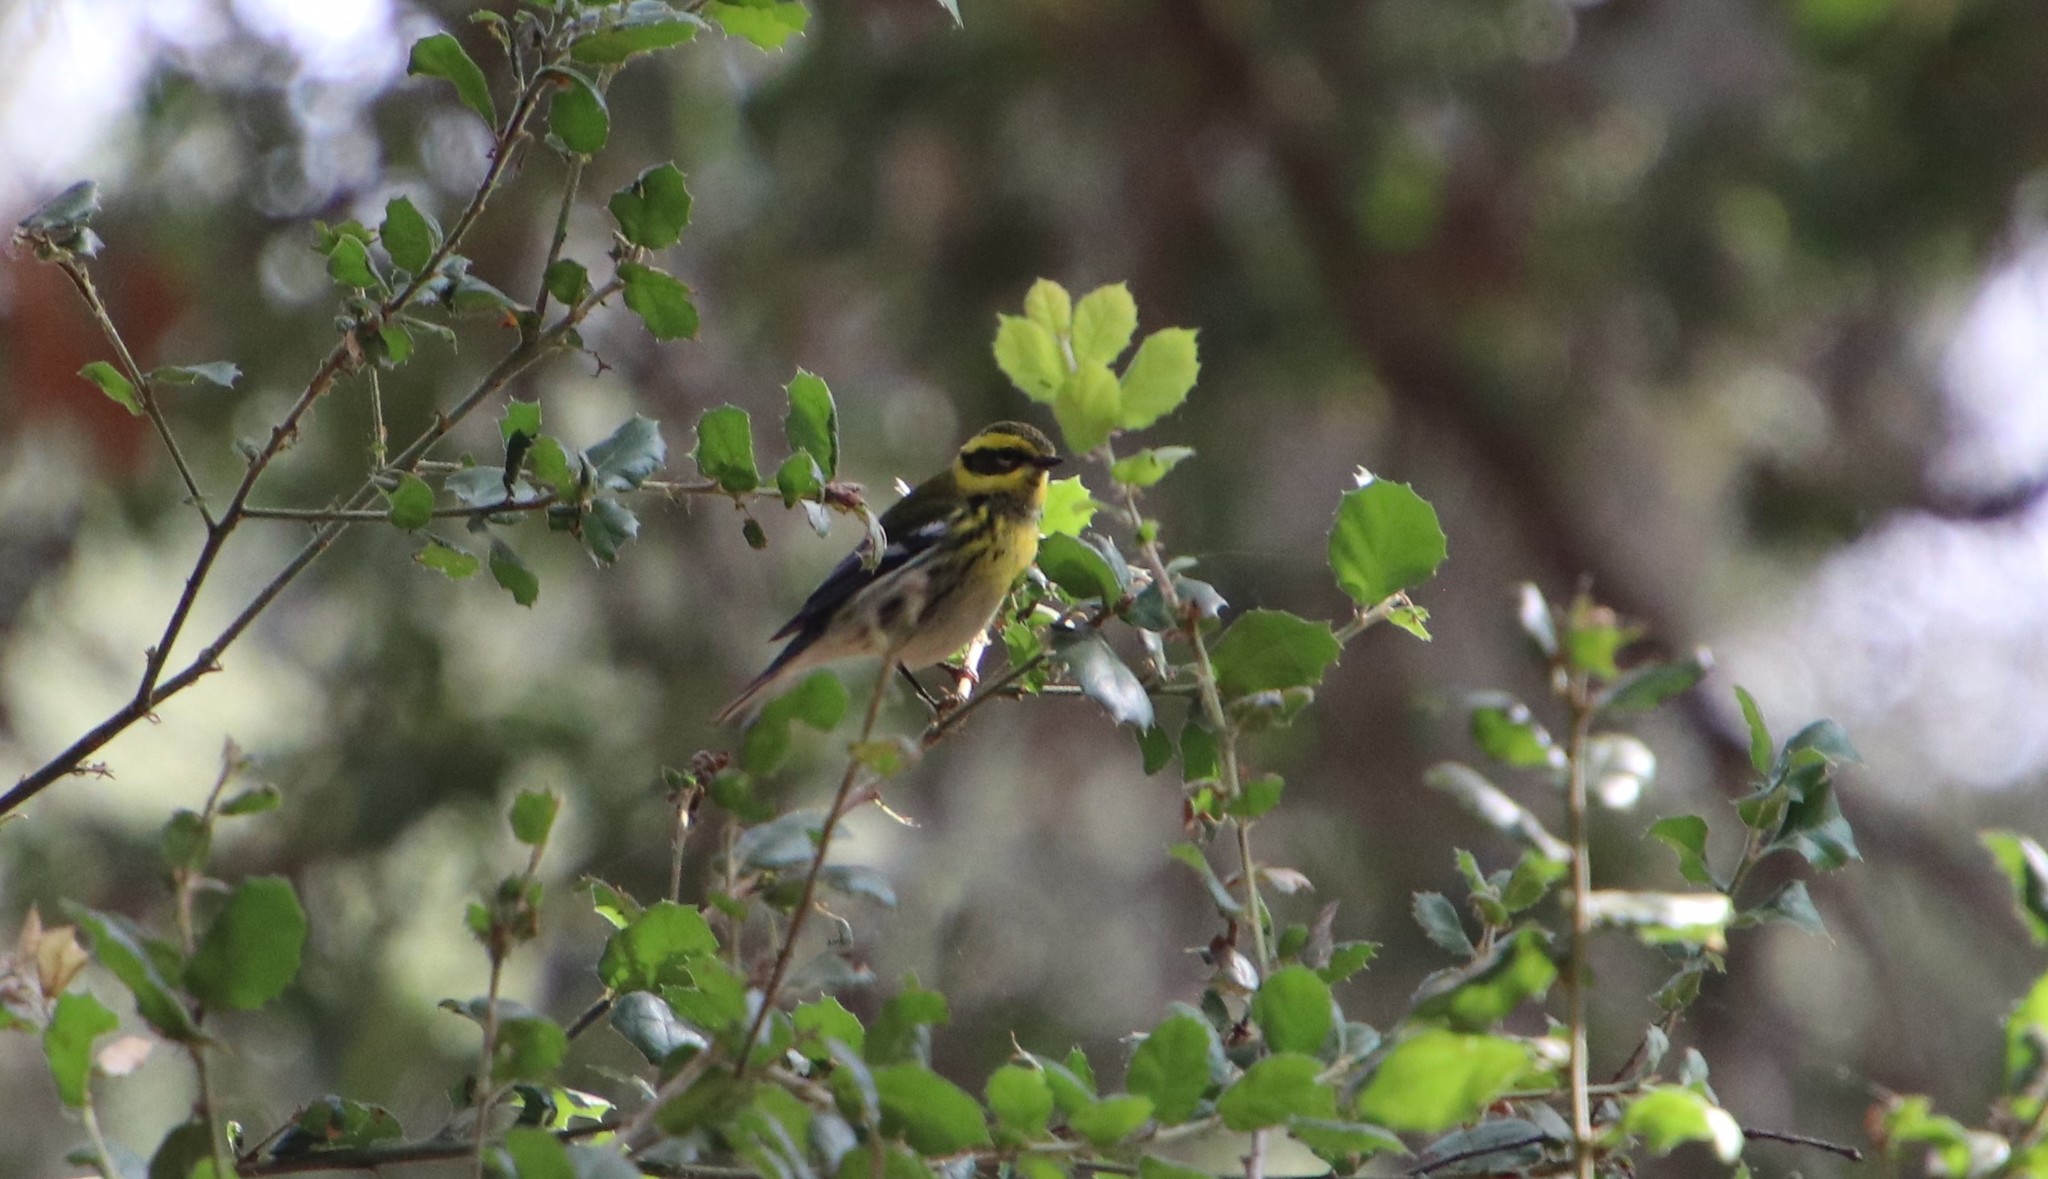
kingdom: Animalia
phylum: Chordata
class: Aves
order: Passeriformes
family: Parulidae
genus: Setophaga
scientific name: Setophaga townsendi
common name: Townsend's warbler
